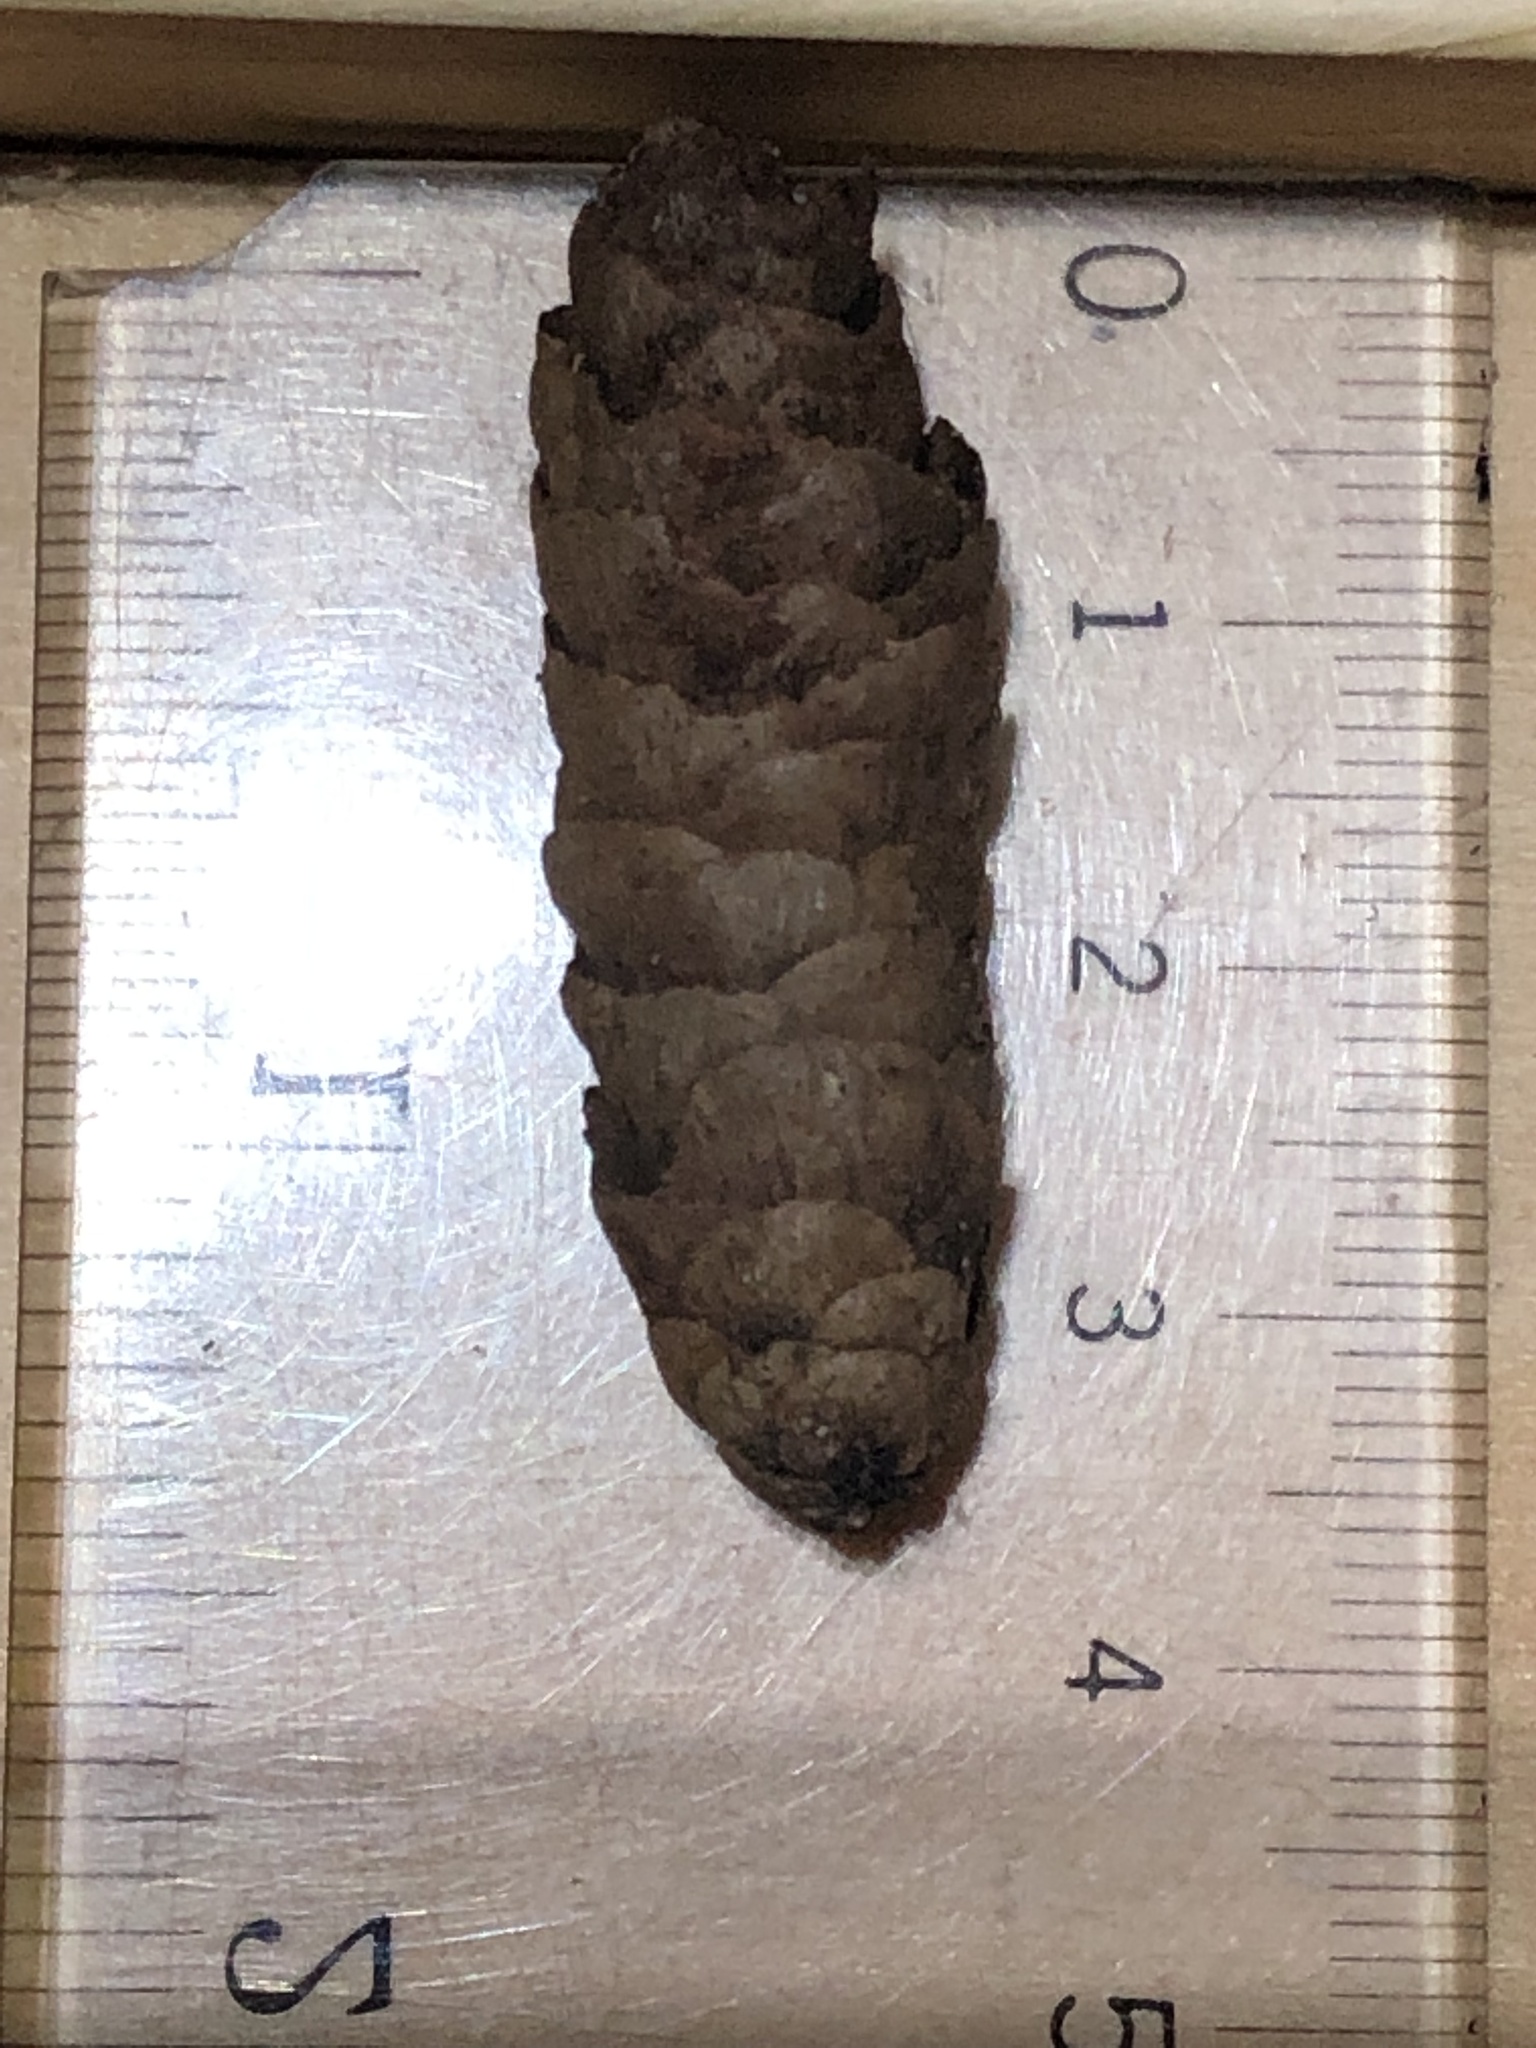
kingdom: Plantae
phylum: Tracheophyta
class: Pinopsida
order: Pinales
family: Pinaceae
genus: Picea
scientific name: Picea glauca
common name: White spruce
